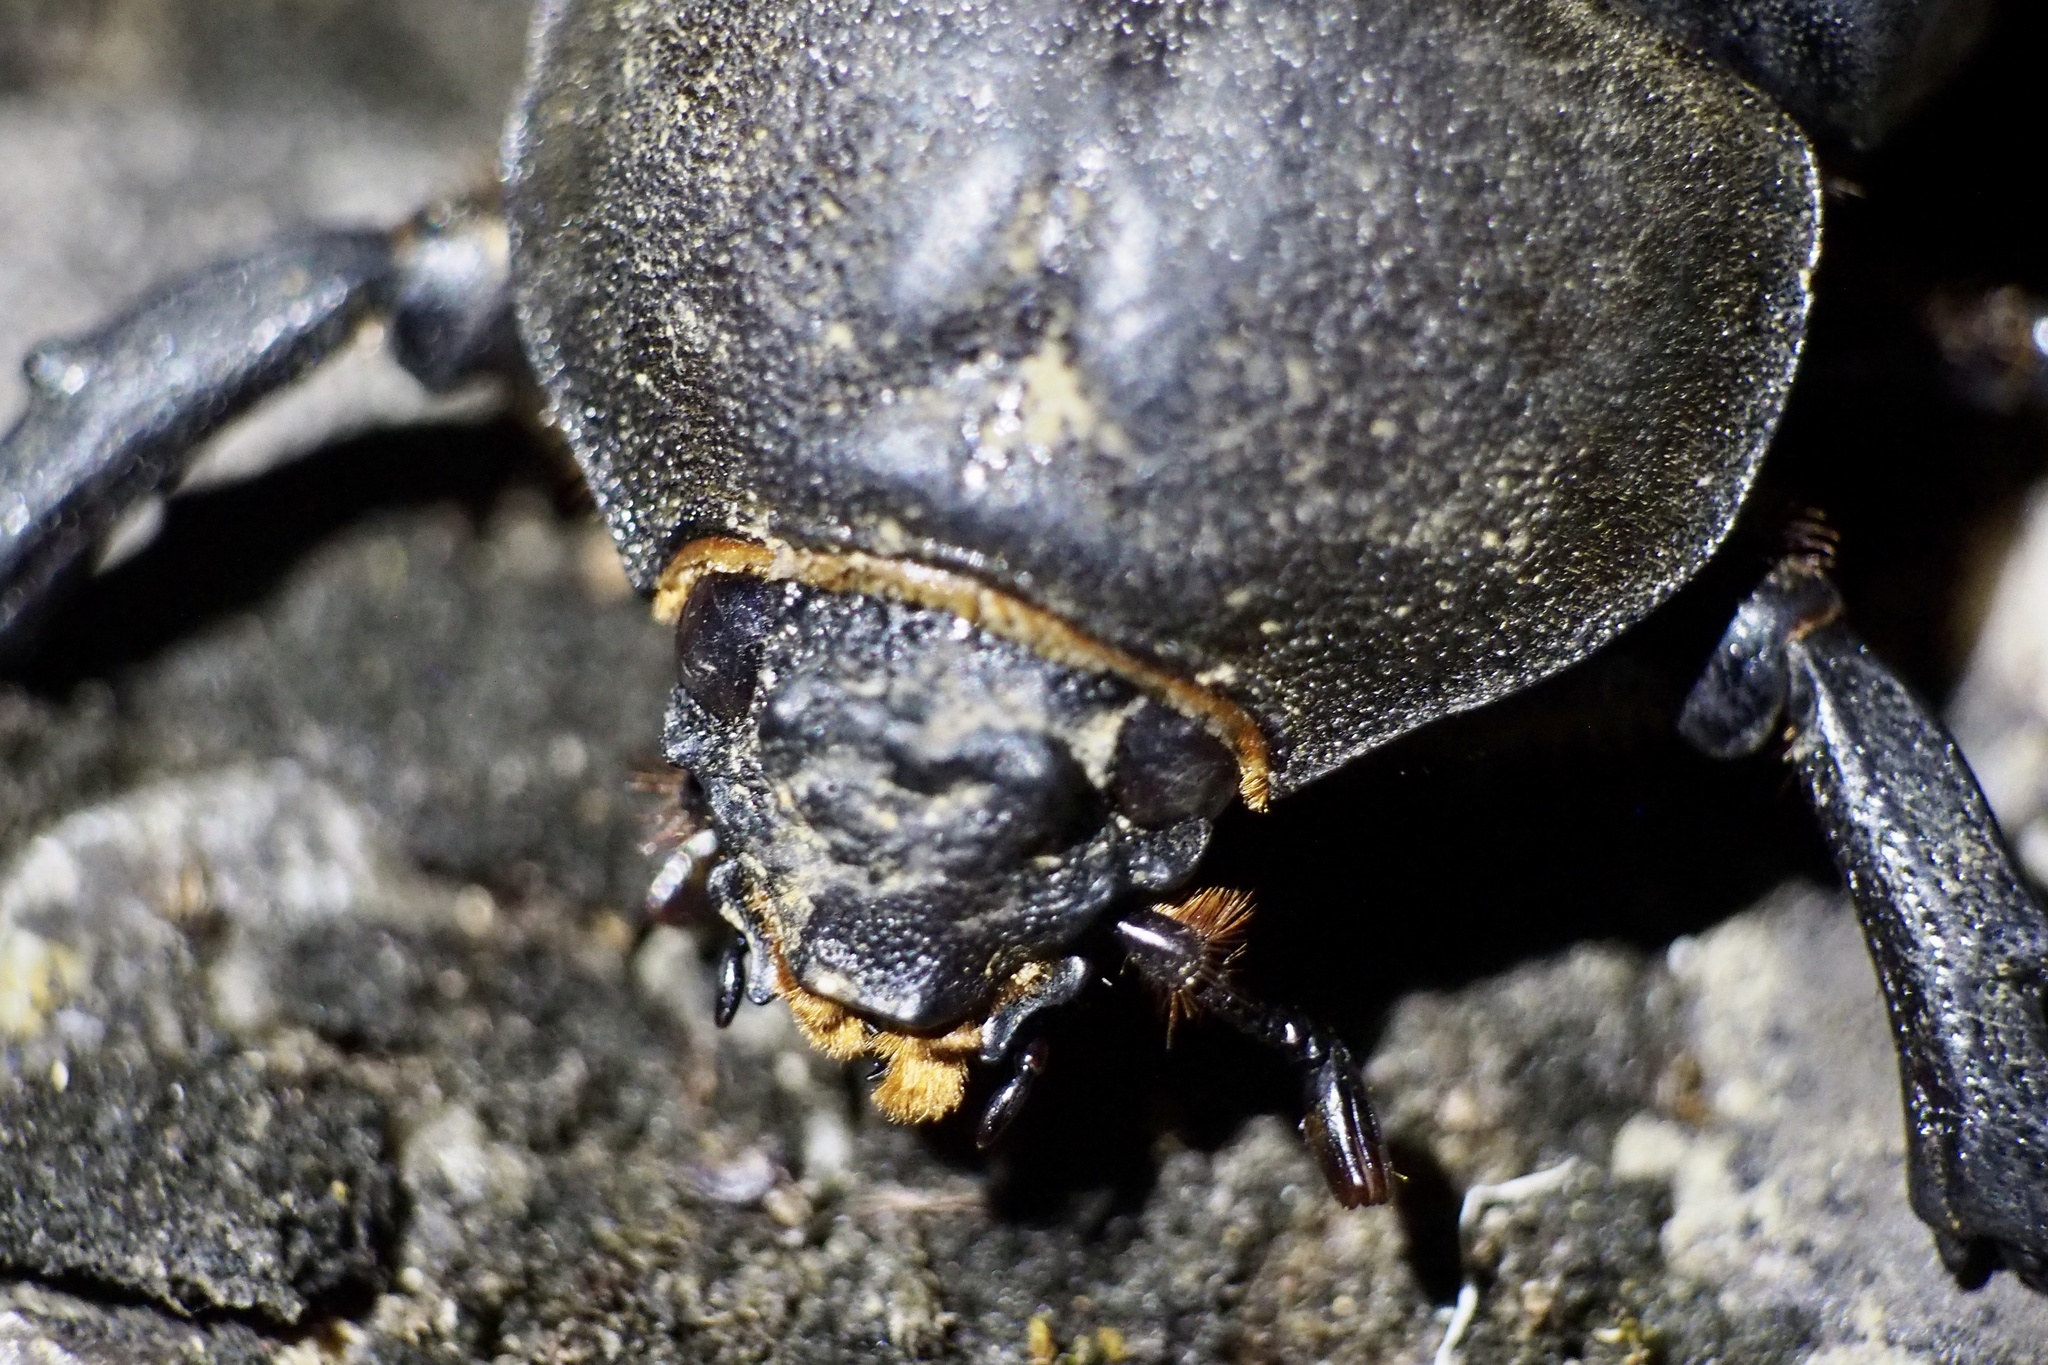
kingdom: Animalia
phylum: Arthropoda
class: Insecta
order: Coleoptera
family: Scarabaeidae
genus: Trypoxylus
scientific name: Trypoxylus dichotomus
